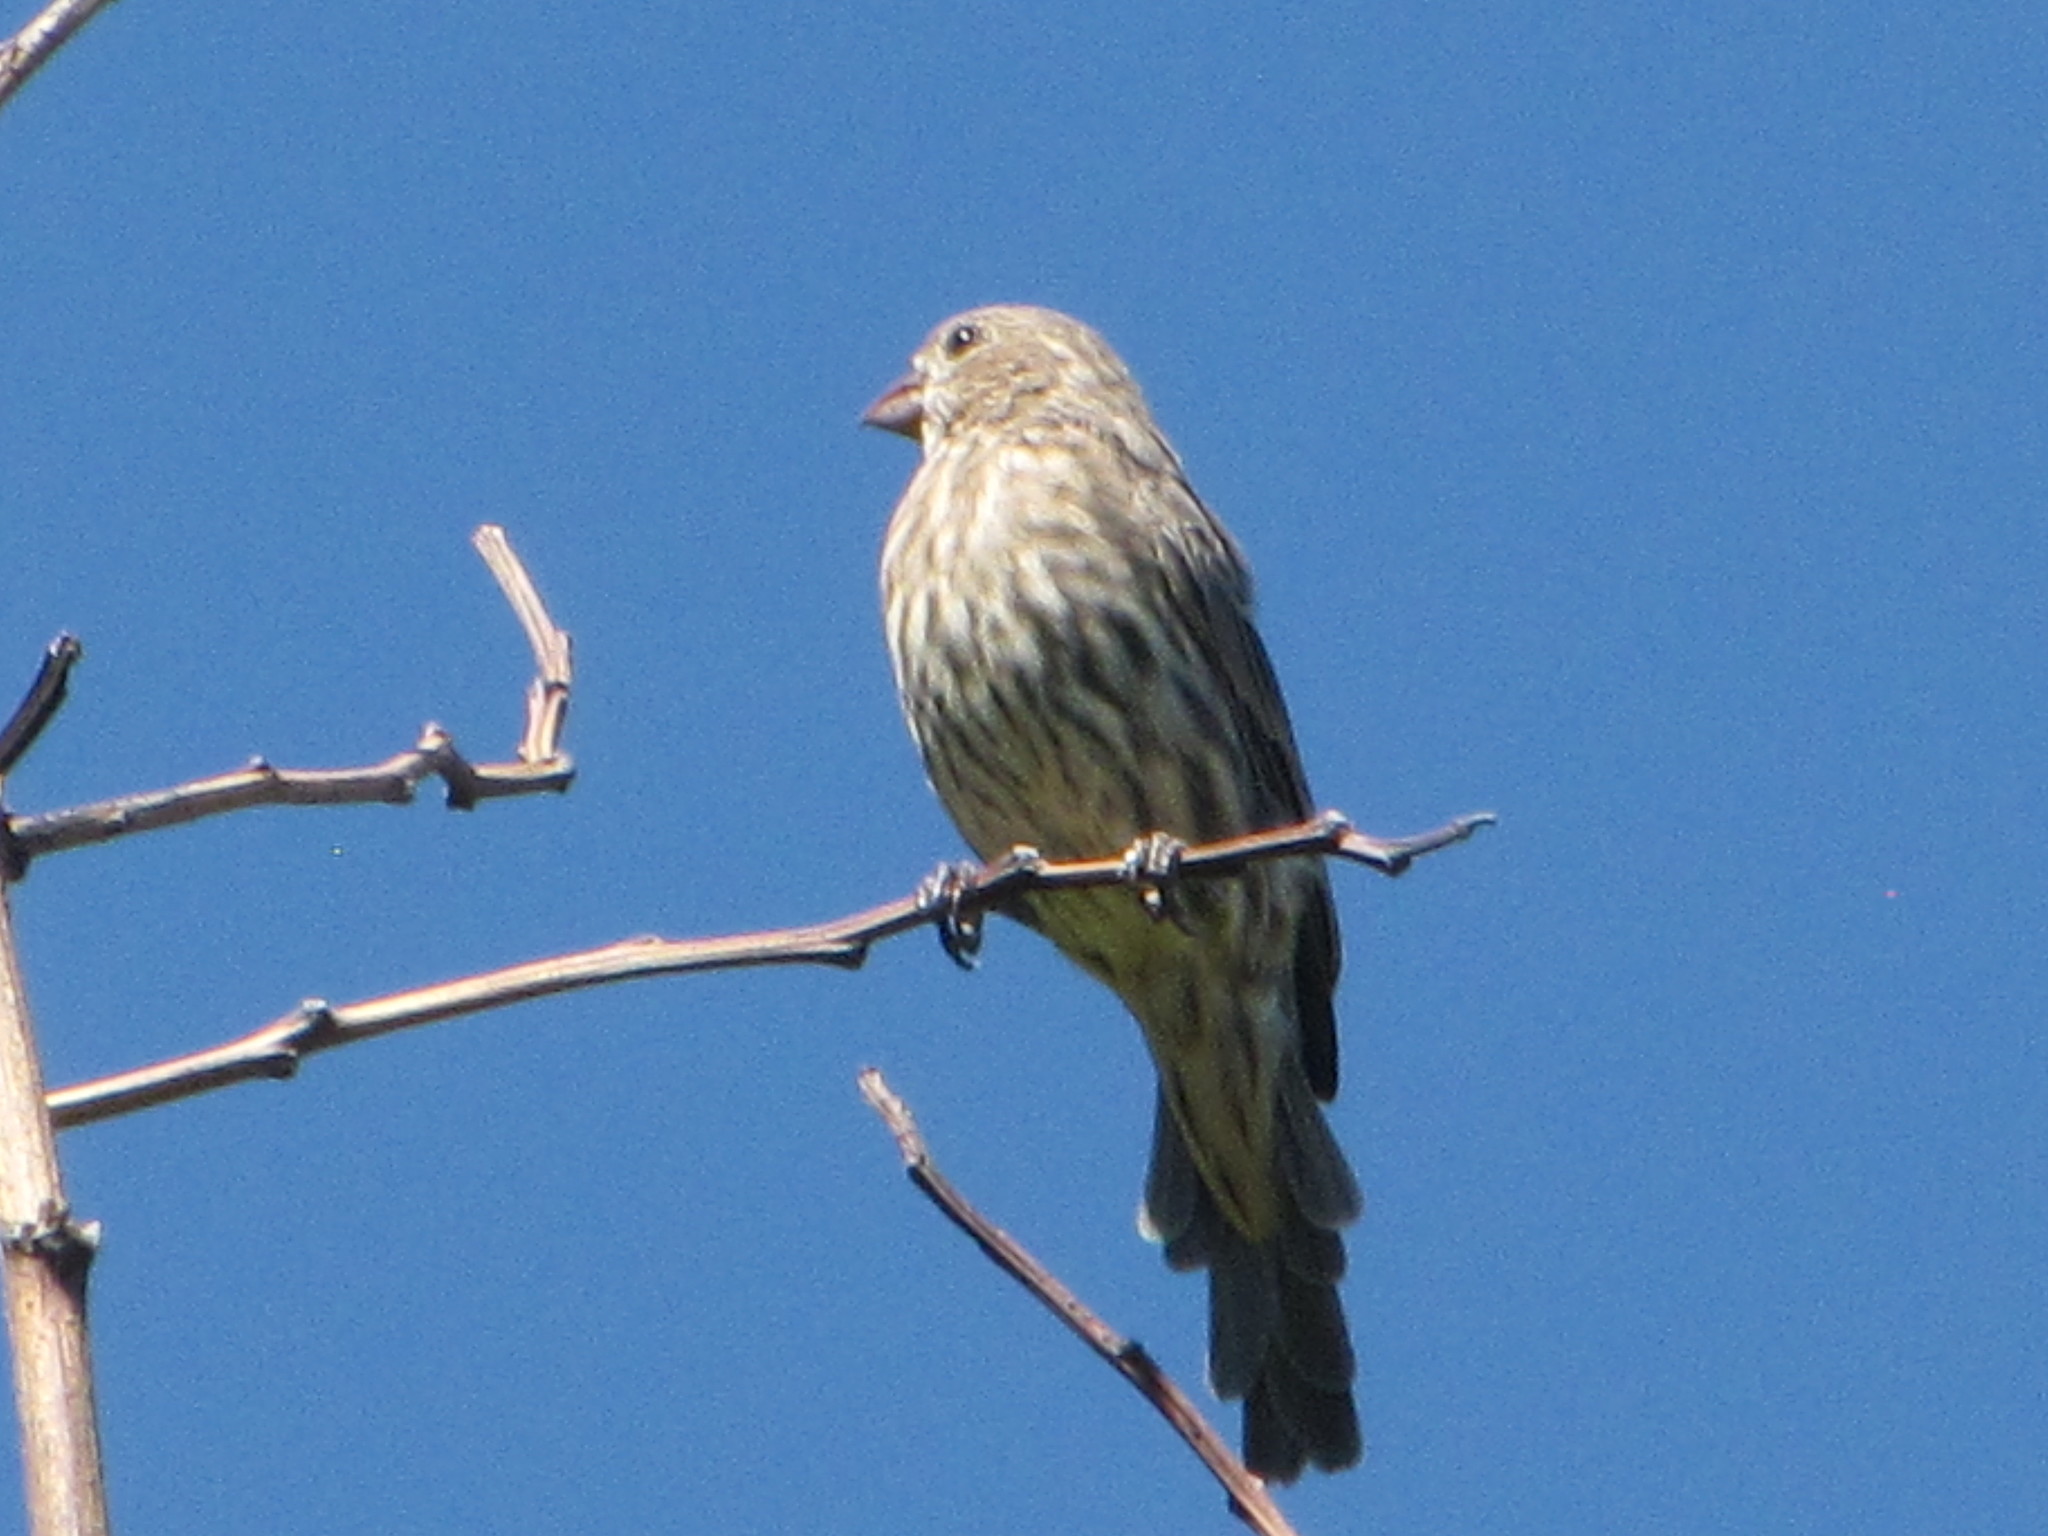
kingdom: Animalia
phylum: Chordata
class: Aves
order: Passeriformes
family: Fringillidae
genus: Haemorhous
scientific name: Haemorhous mexicanus
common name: House finch
